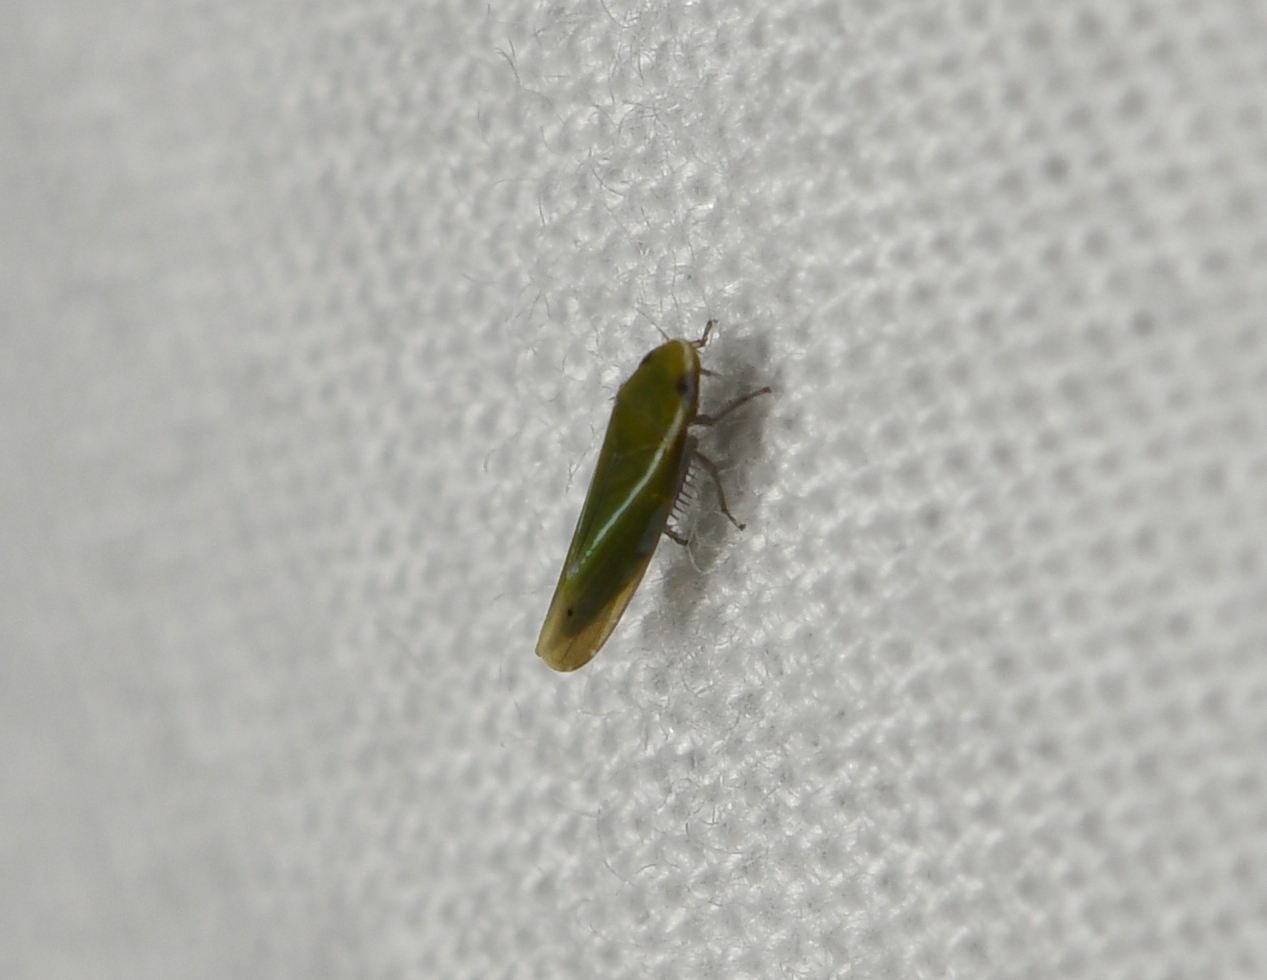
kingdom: Animalia
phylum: Arthropoda
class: Insecta
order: Hemiptera
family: Cicadellidae
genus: Alconeura
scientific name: Alconeura fulminea
